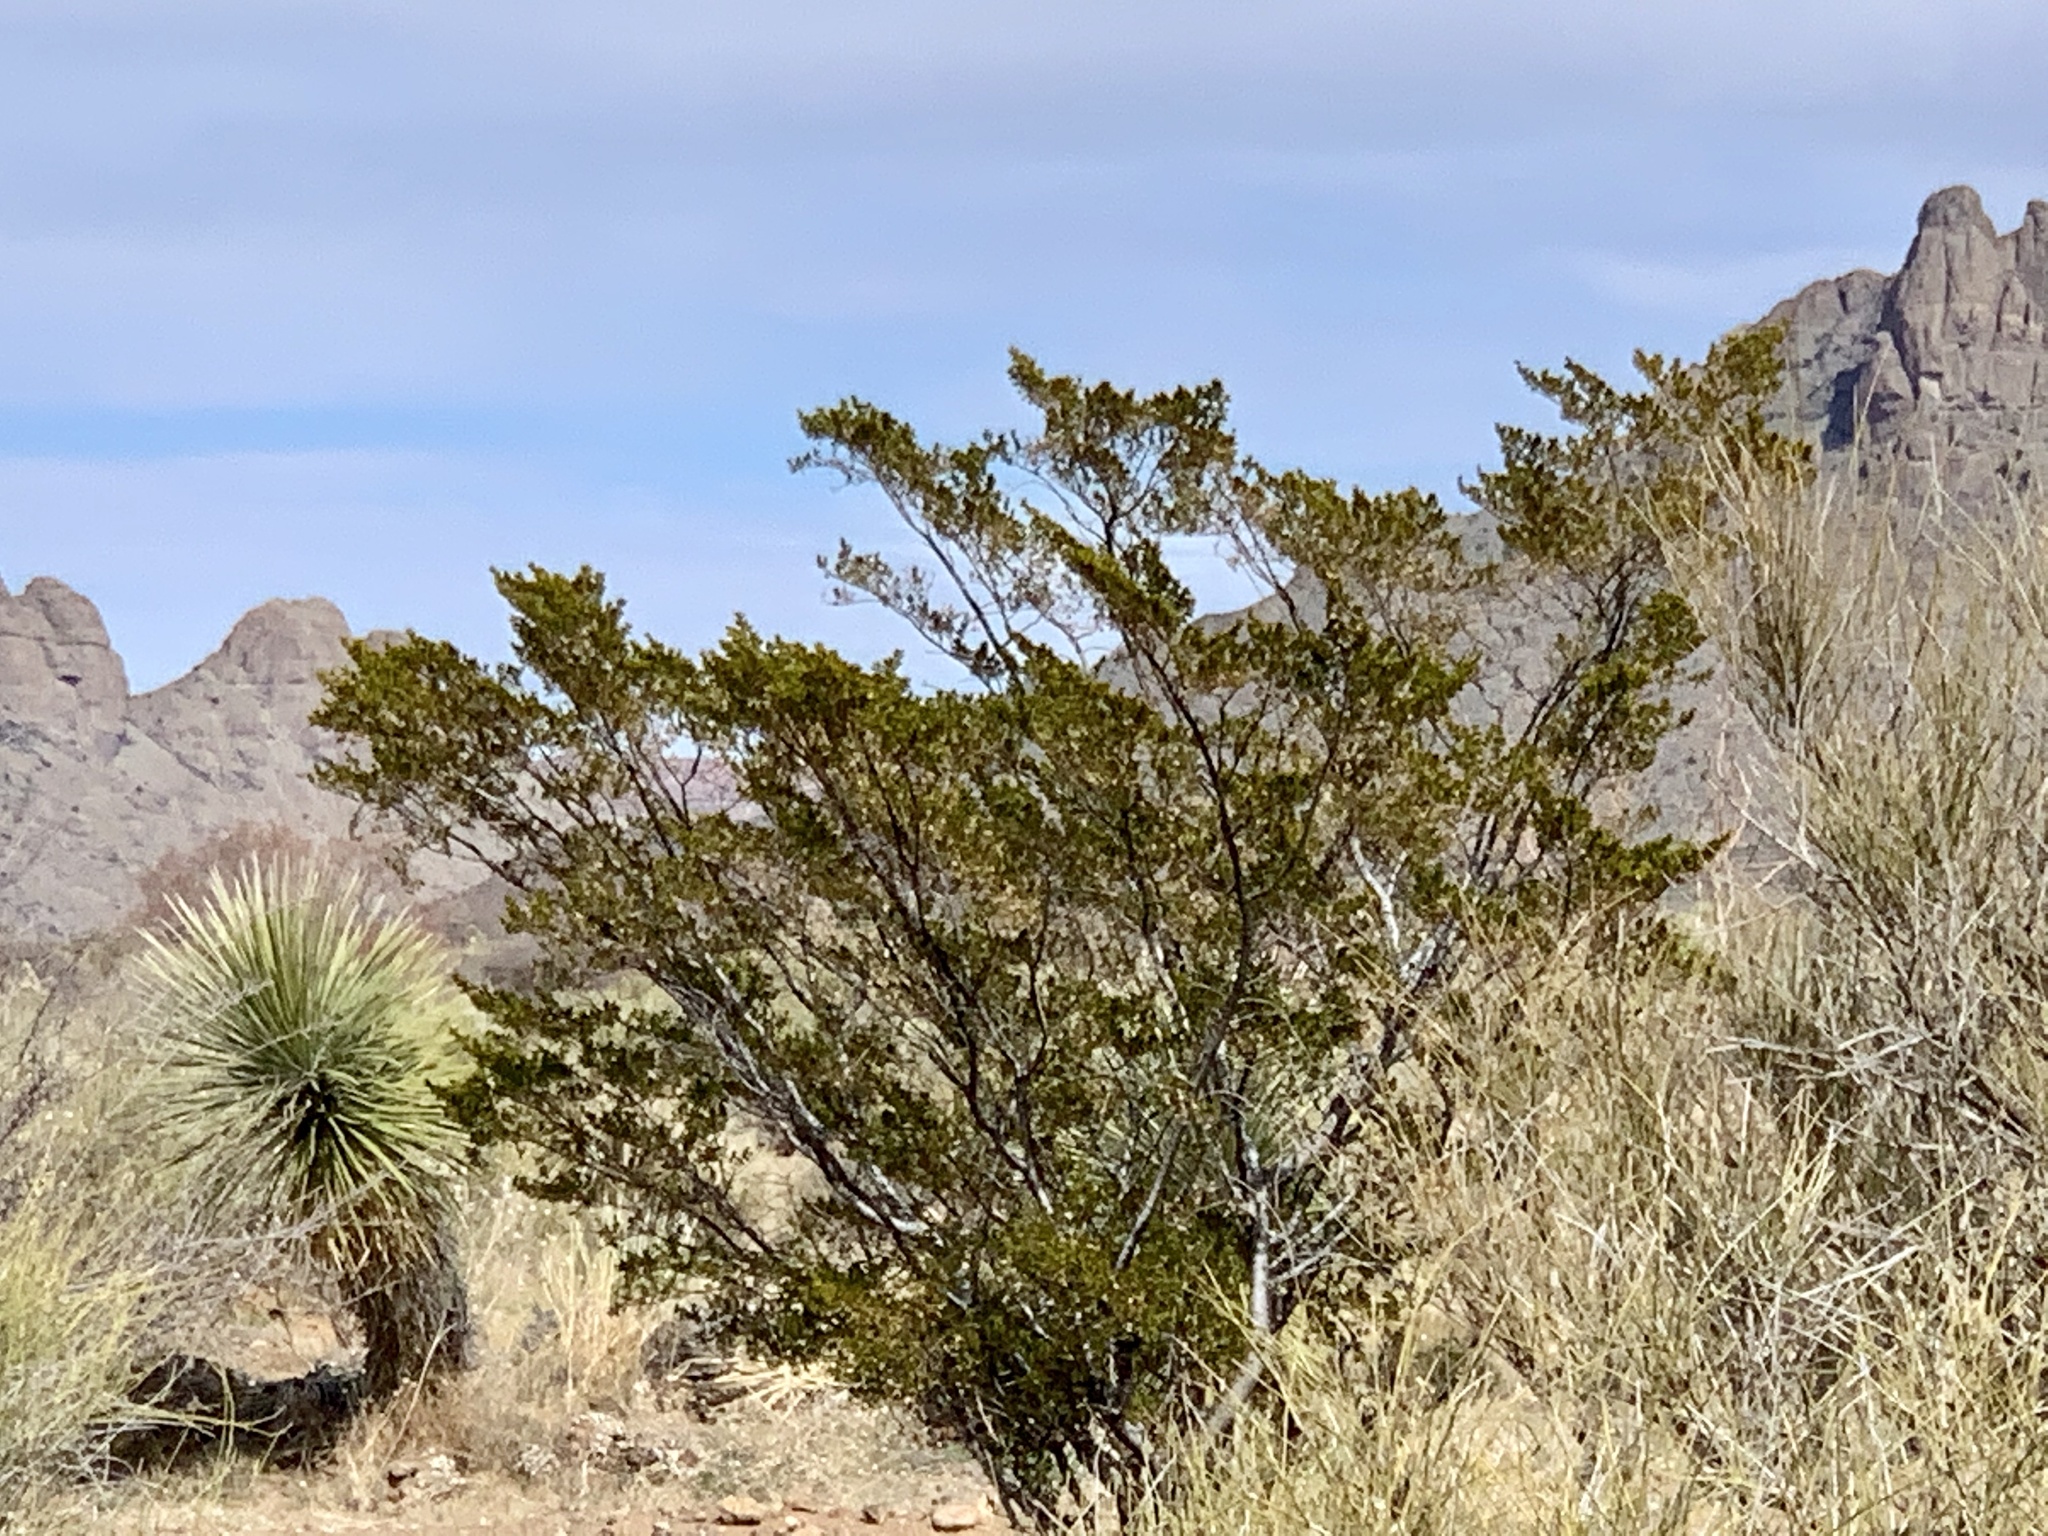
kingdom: Plantae
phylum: Tracheophyta
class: Magnoliopsida
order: Zygophyllales
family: Zygophyllaceae
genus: Larrea
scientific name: Larrea tridentata
